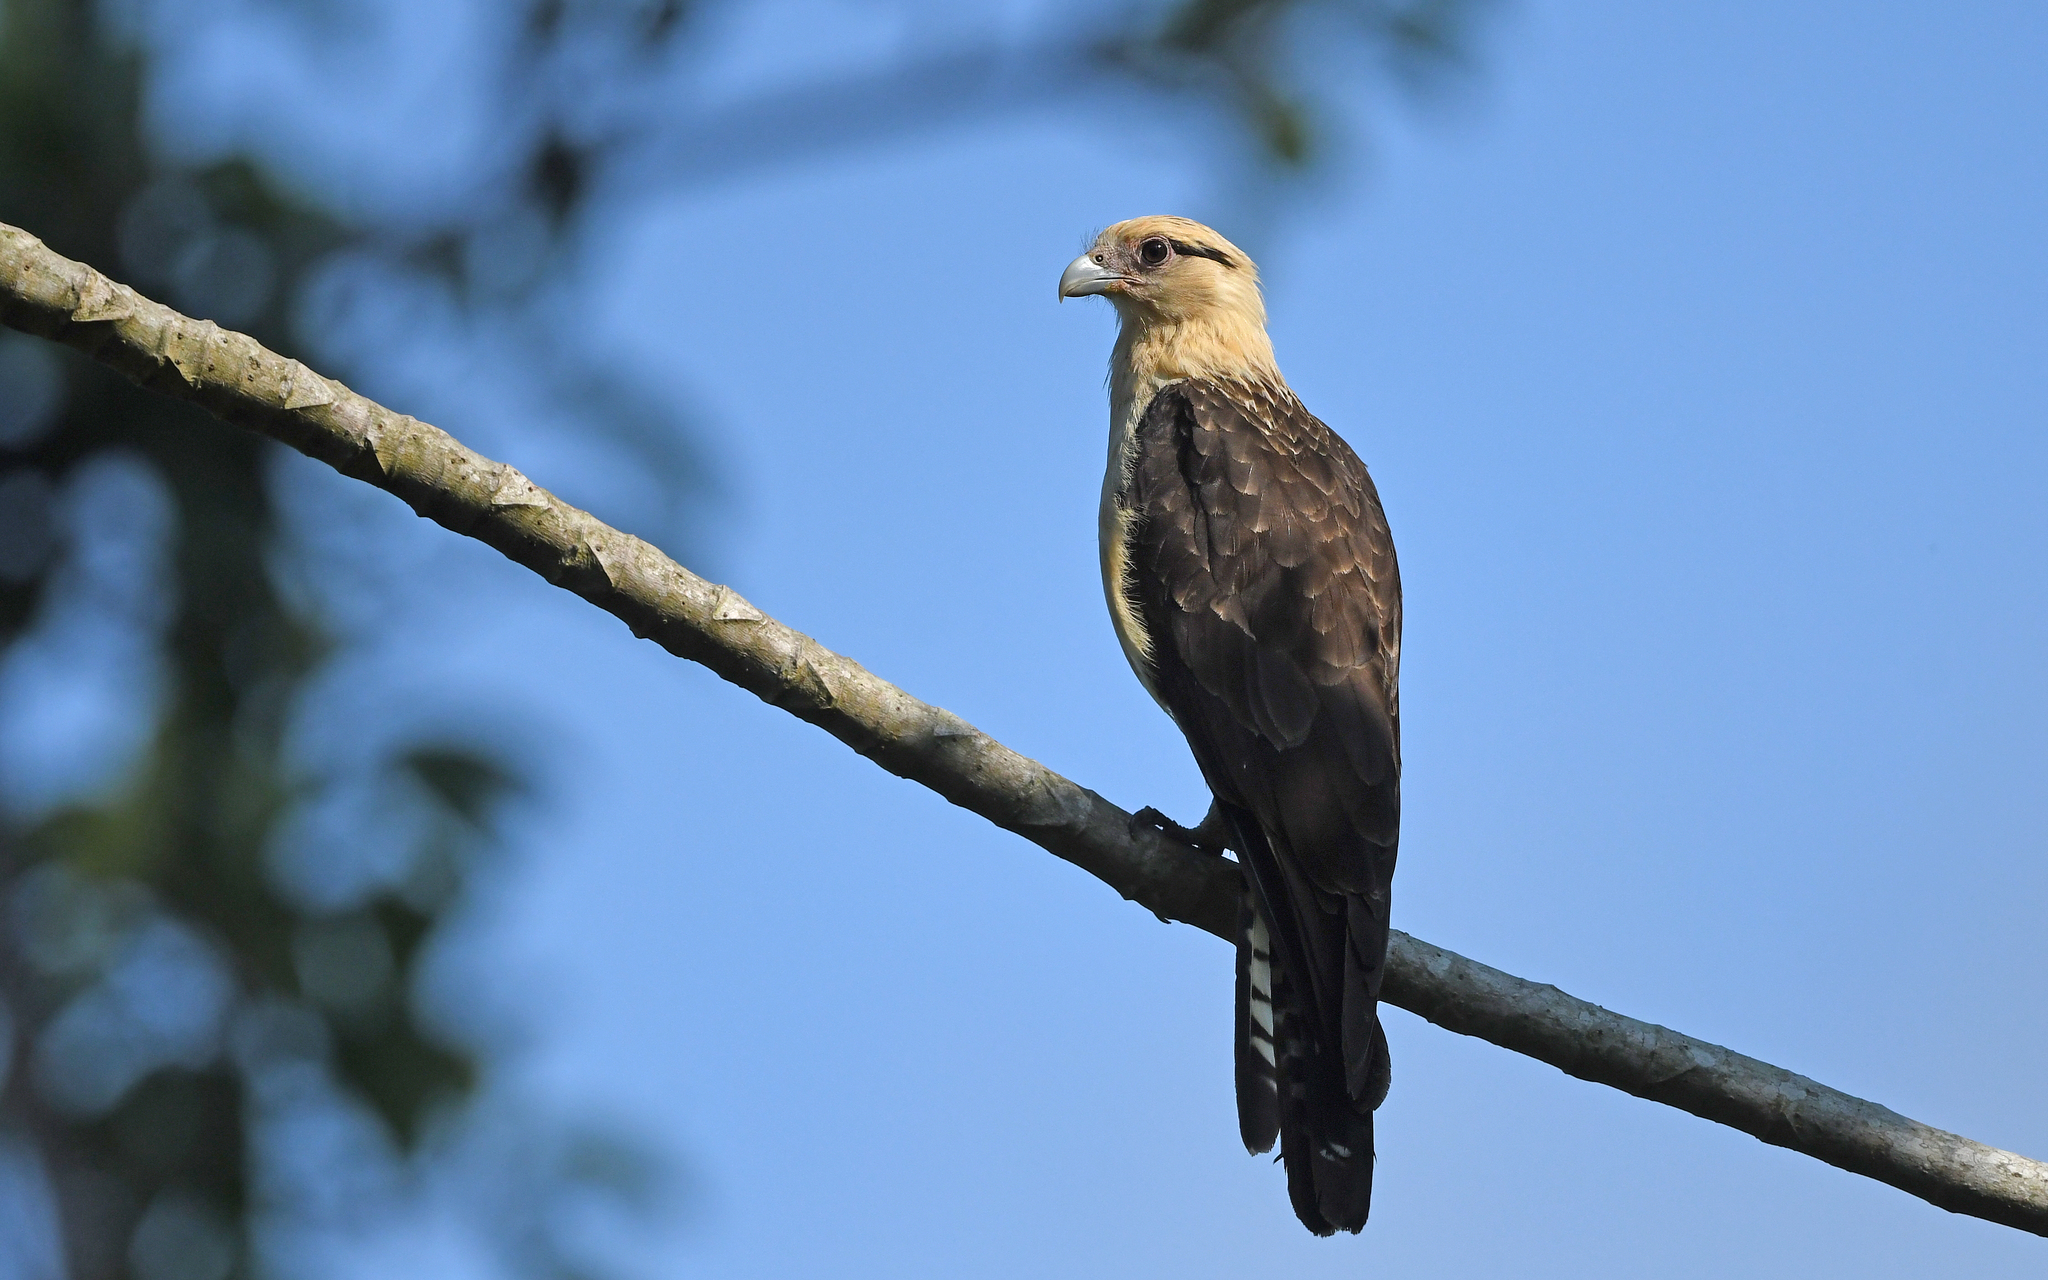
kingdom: Animalia
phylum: Chordata
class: Aves
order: Falconiformes
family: Falconidae
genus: Daptrius
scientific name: Daptrius
